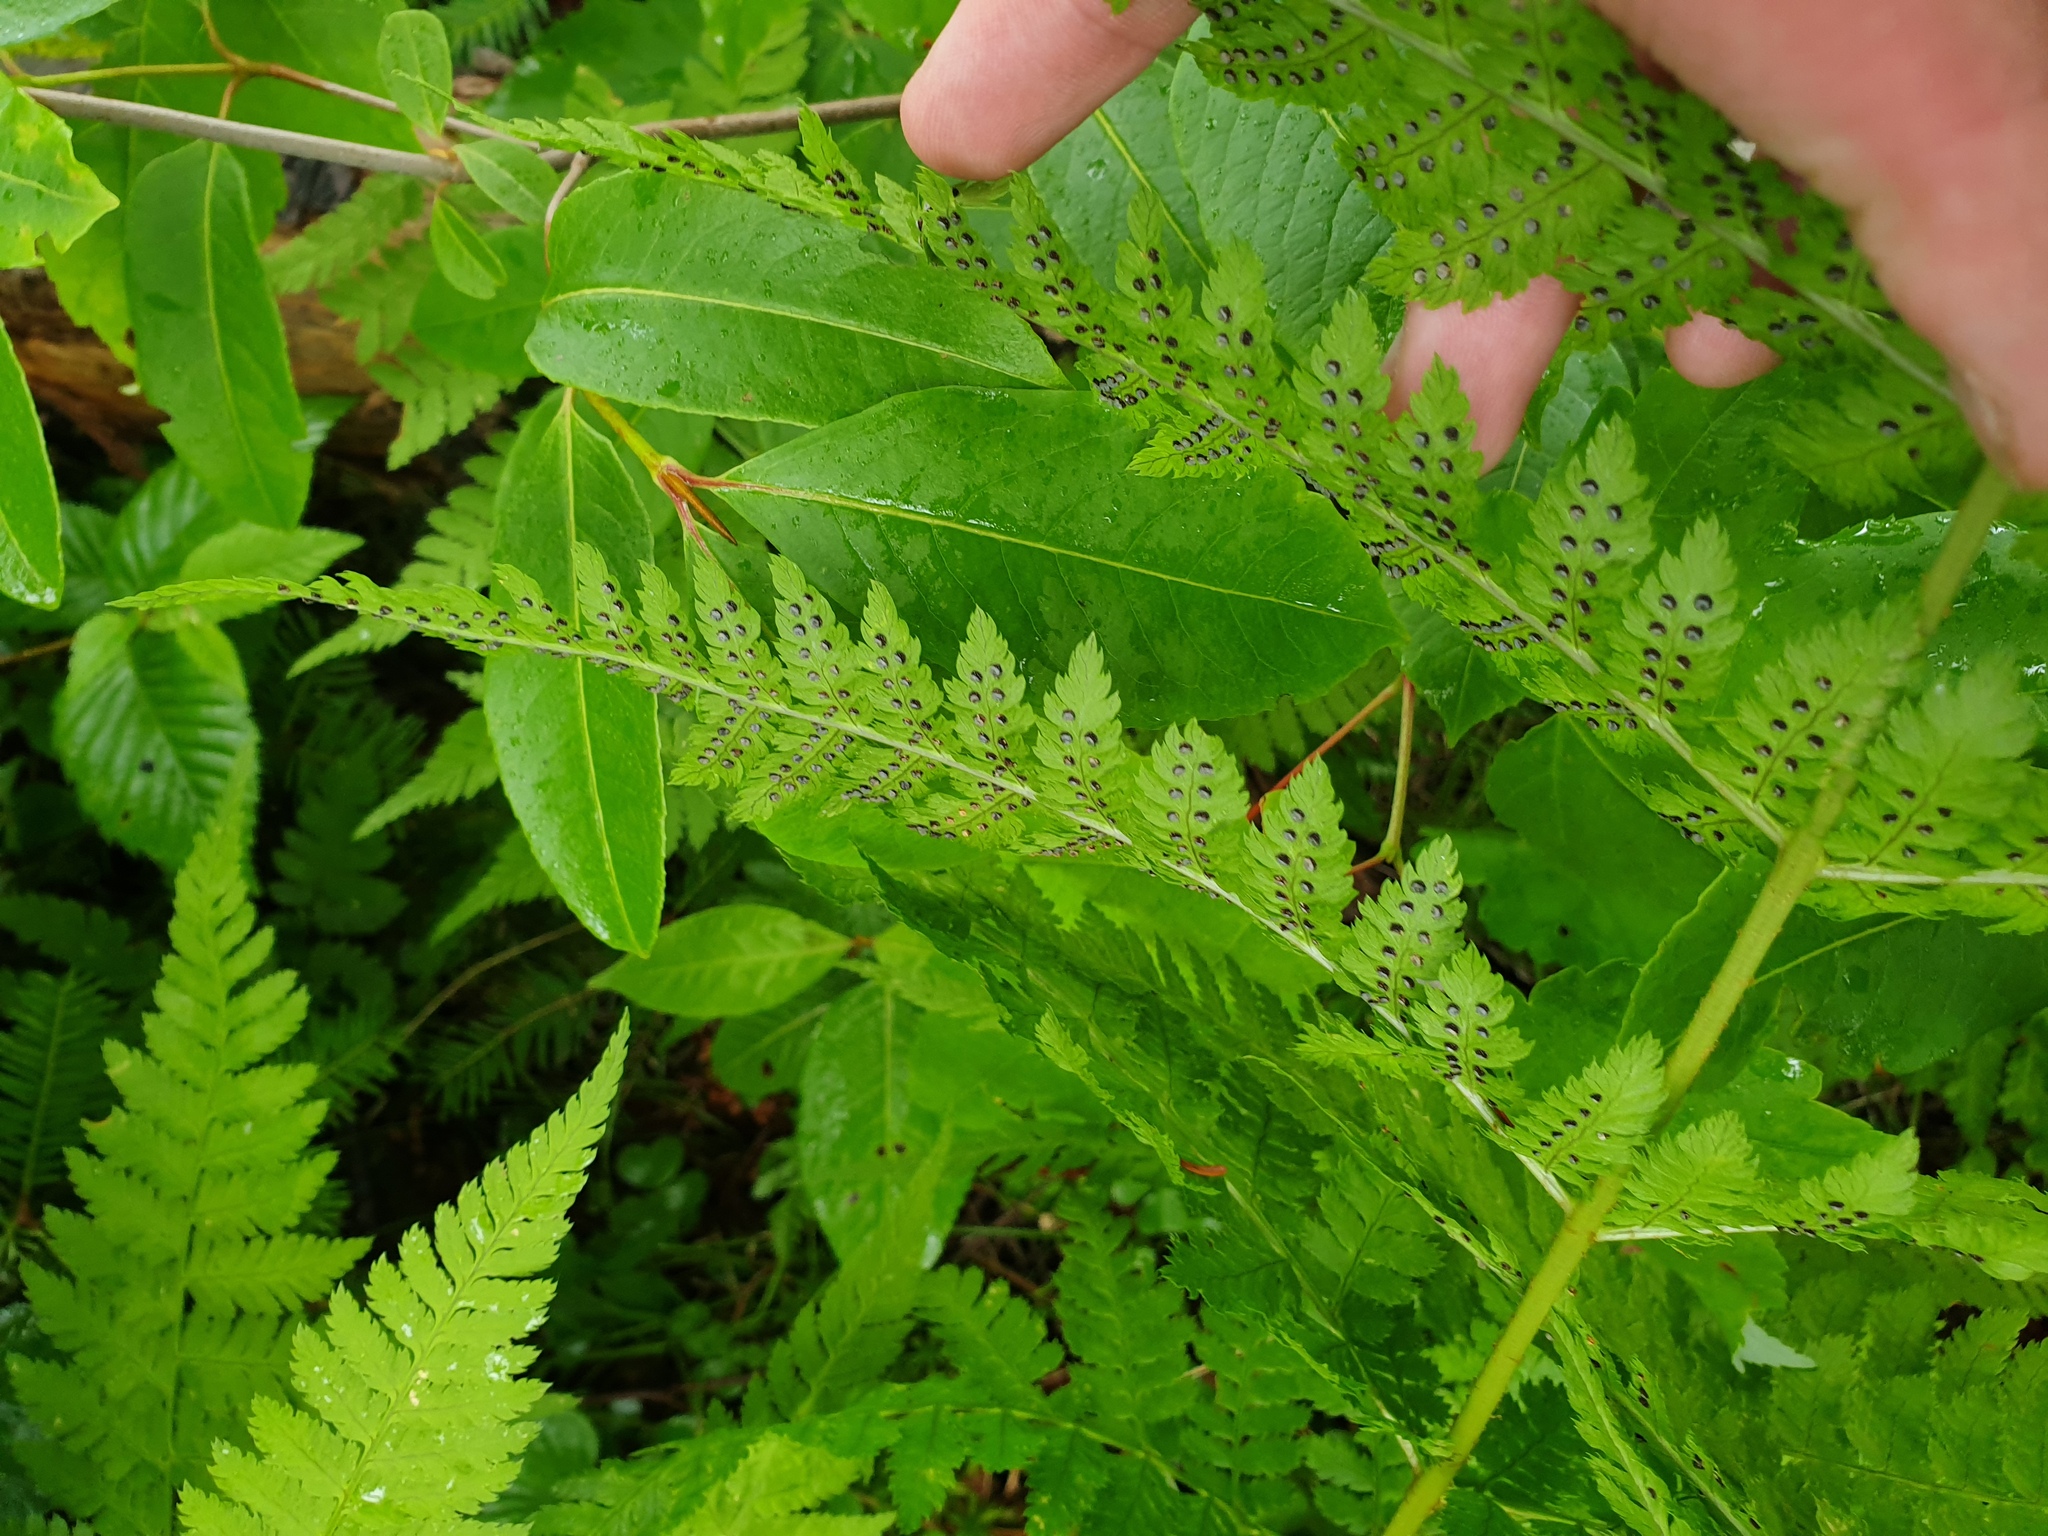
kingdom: Plantae
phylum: Tracheophyta
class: Magnoliopsida
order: Dipsacales
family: Viburnaceae
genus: Viburnum
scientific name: Viburnum cassinoides
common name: Swamp haw
